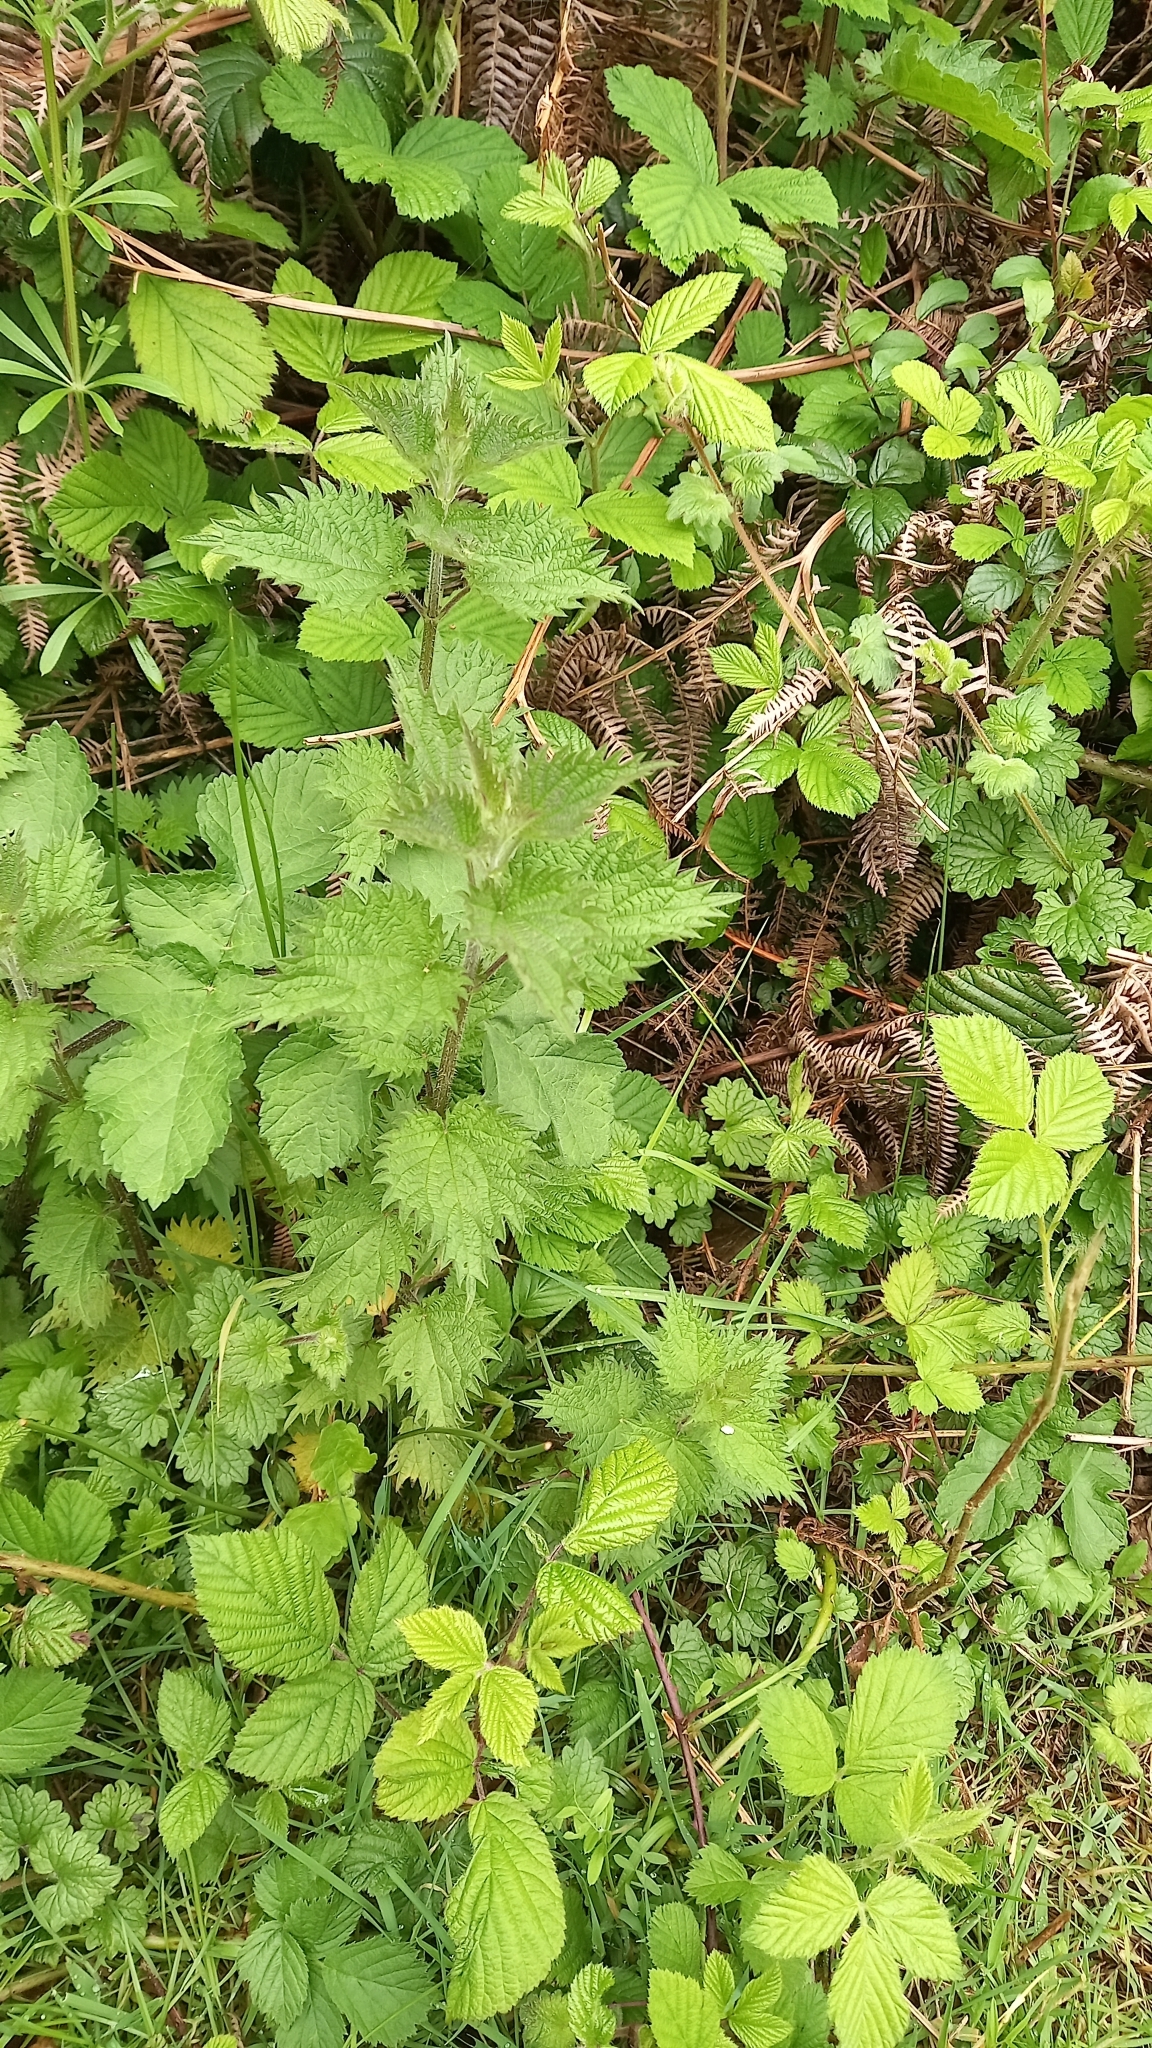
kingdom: Plantae
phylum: Tracheophyta
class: Magnoliopsida
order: Rosales
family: Urticaceae
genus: Urtica
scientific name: Urtica dioica
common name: Common nettle
